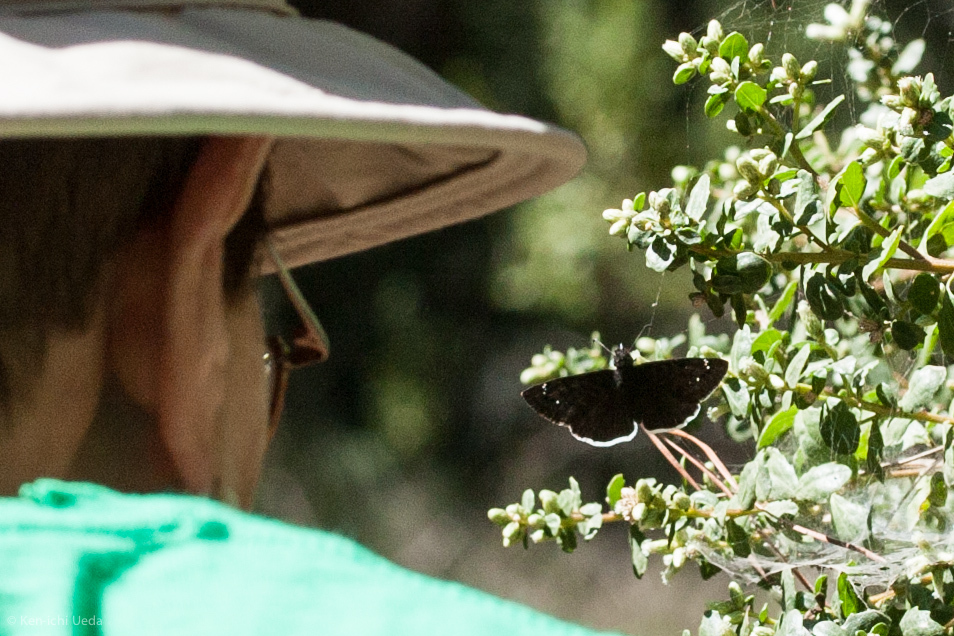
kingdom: Animalia
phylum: Arthropoda
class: Insecta
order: Lepidoptera
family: Hesperiidae
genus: Erynnis
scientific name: Erynnis tristis
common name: Mournful duskywing
